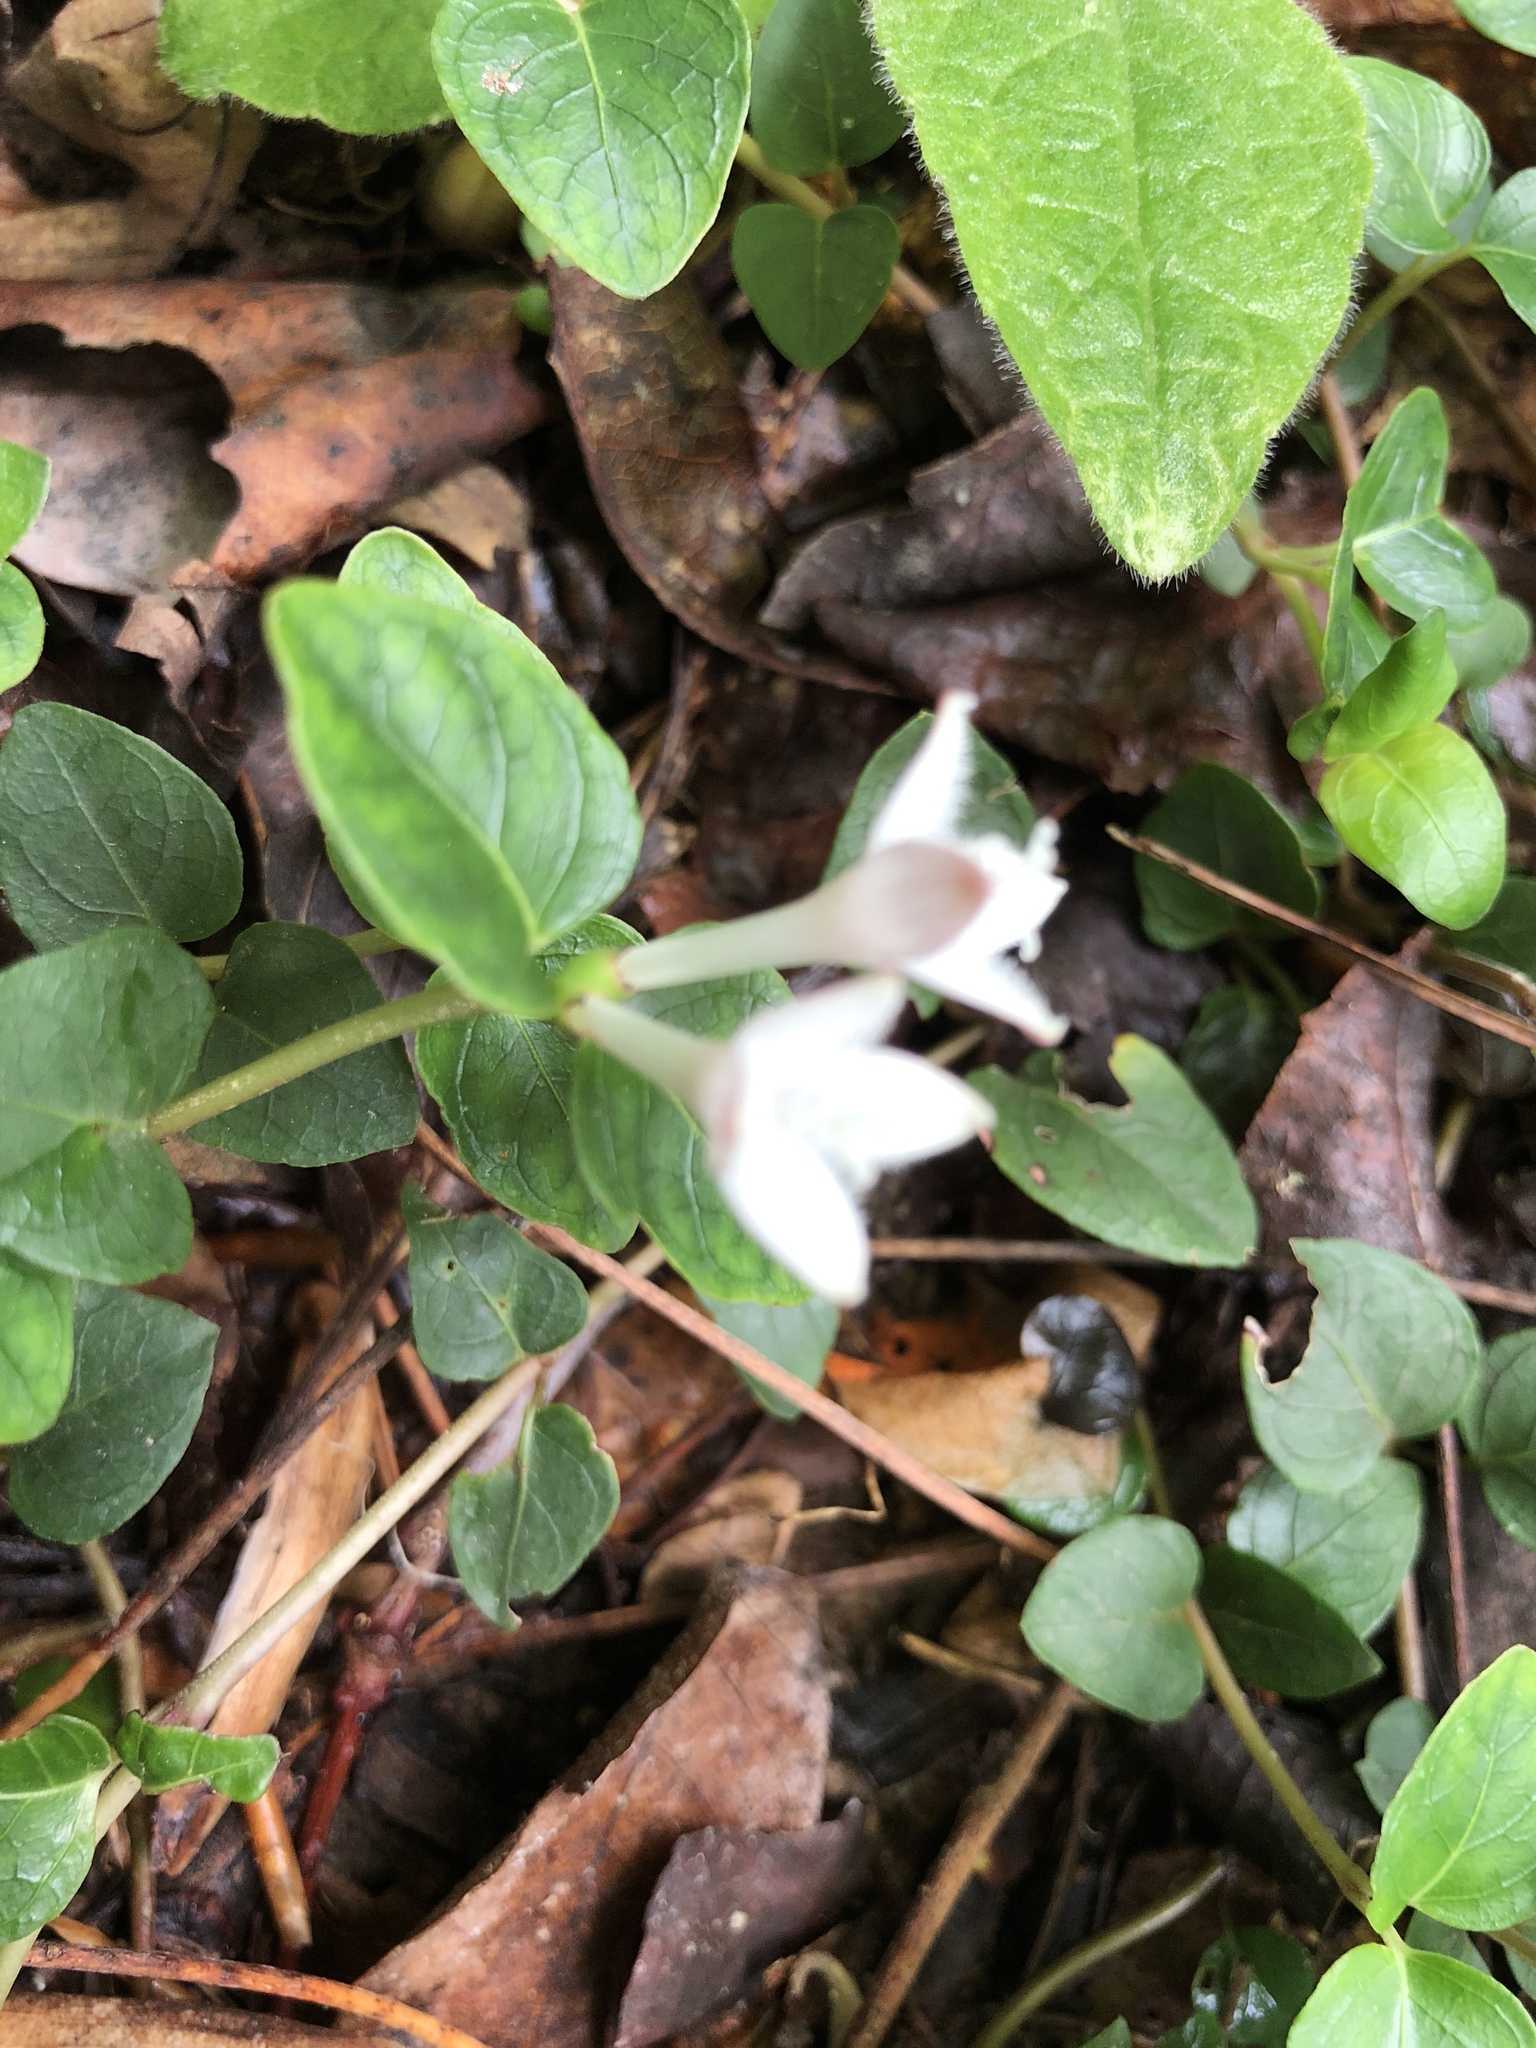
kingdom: Plantae
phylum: Tracheophyta
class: Magnoliopsida
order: Gentianales
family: Rubiaceae
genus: Mitchella
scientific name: Mitchella repens
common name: Partridge-berry
